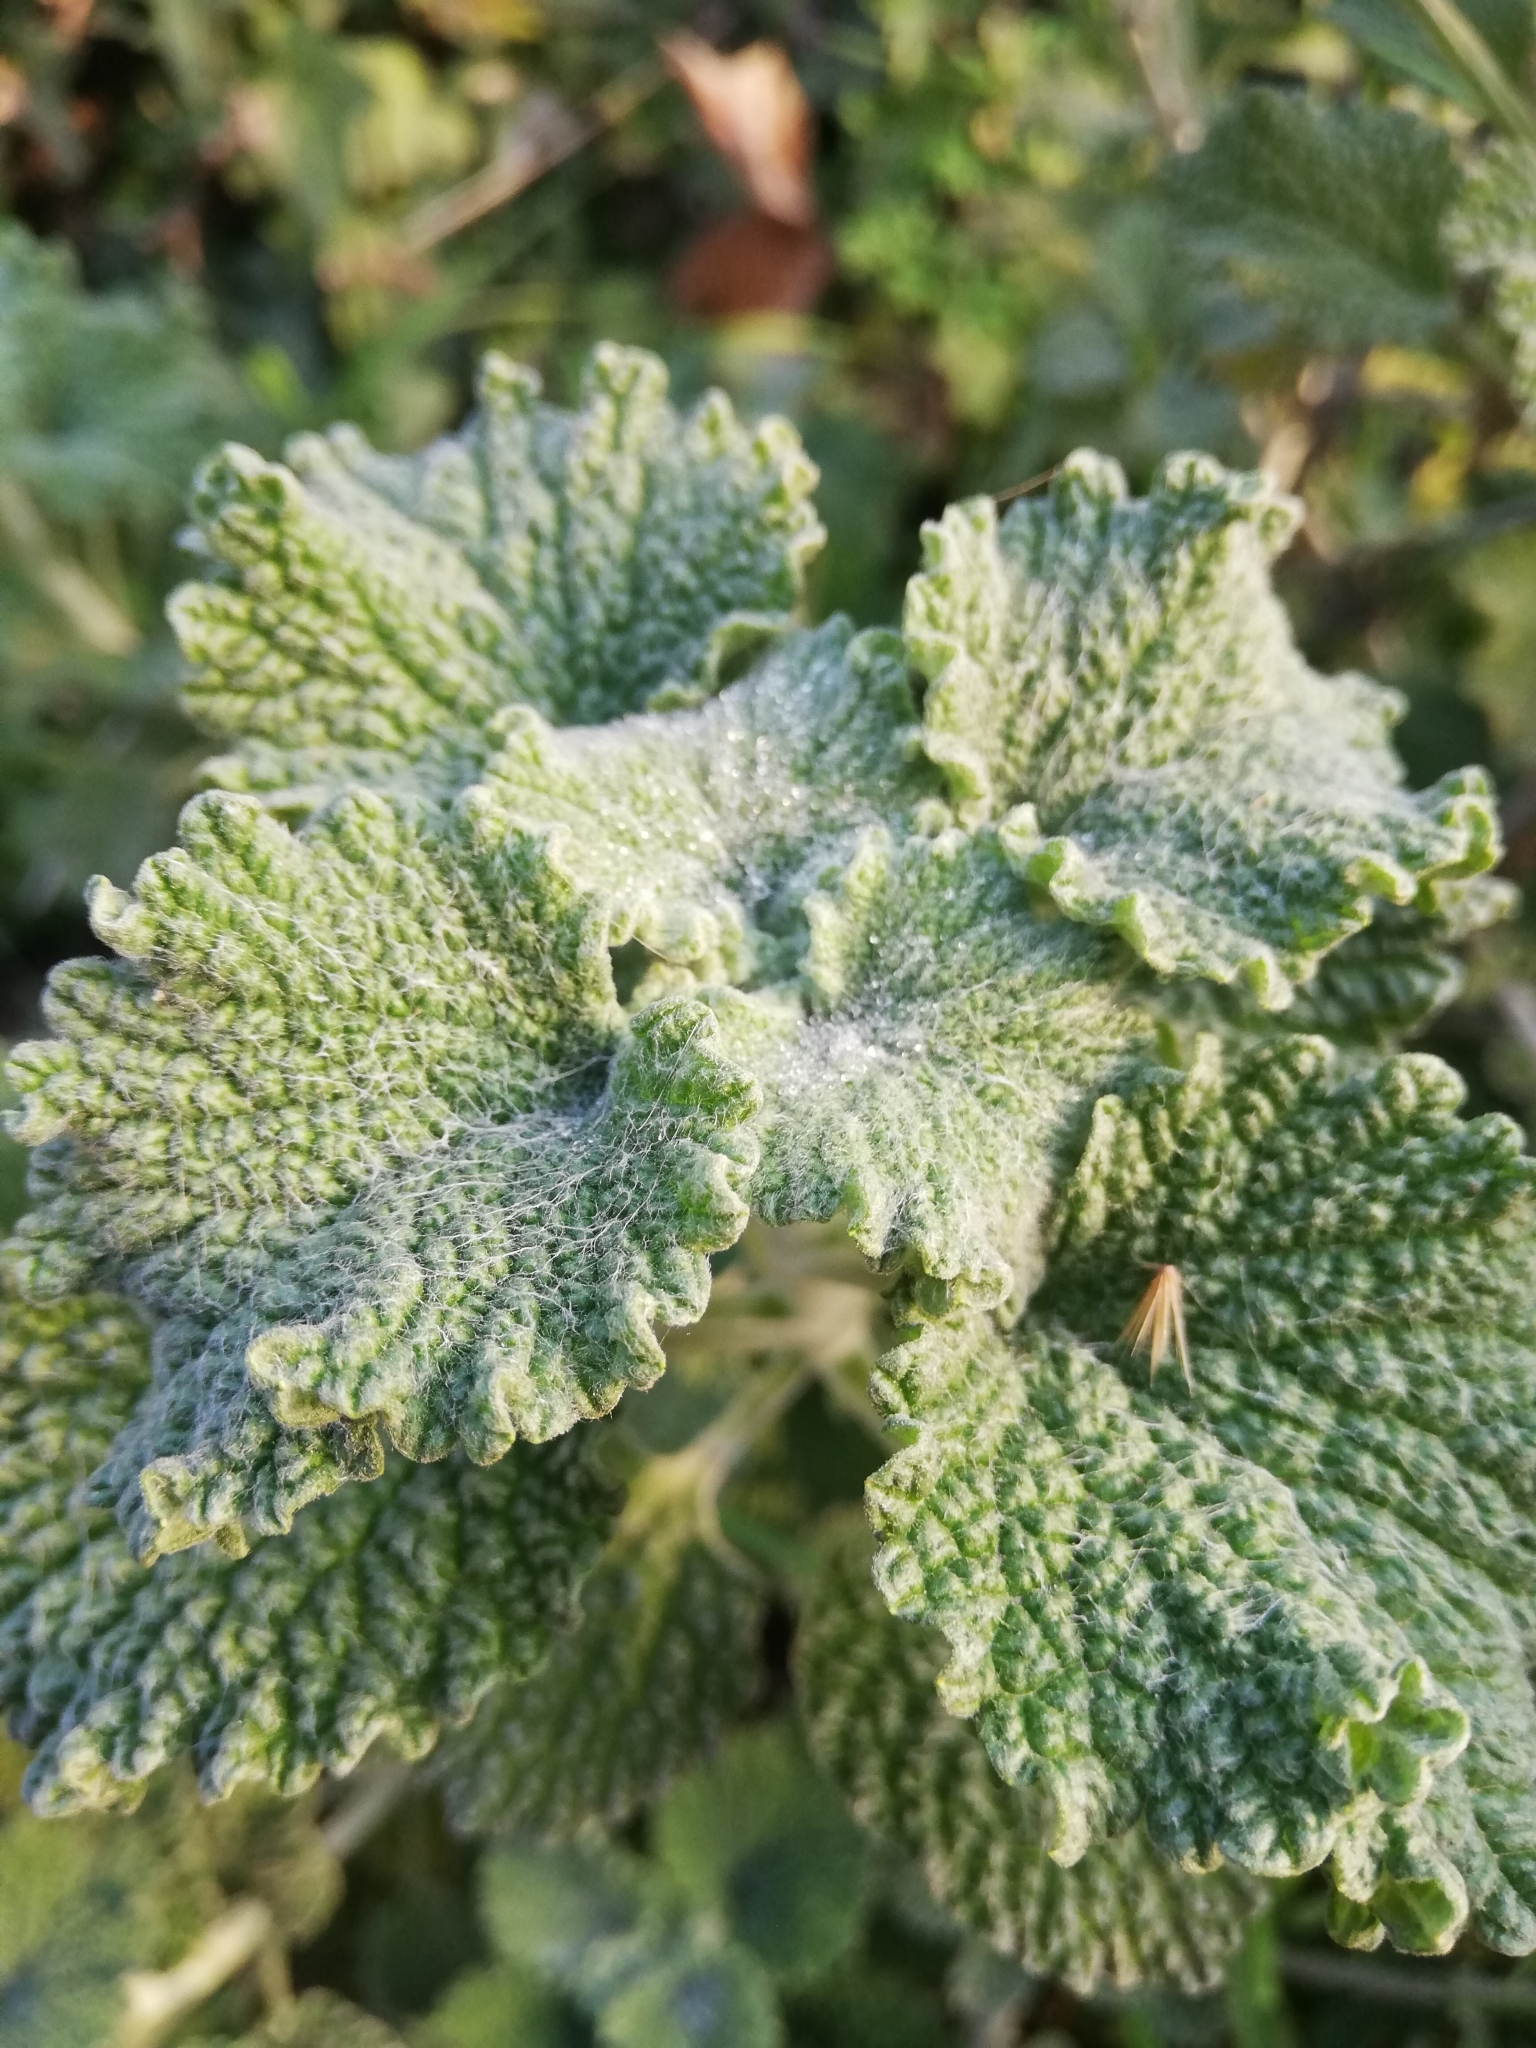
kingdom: Plantae
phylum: Tracheophyta
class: Magnoliopsida
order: Lamiales
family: Lamiaceae
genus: Marrubium
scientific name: Marrubium vulgare
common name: Horehound
